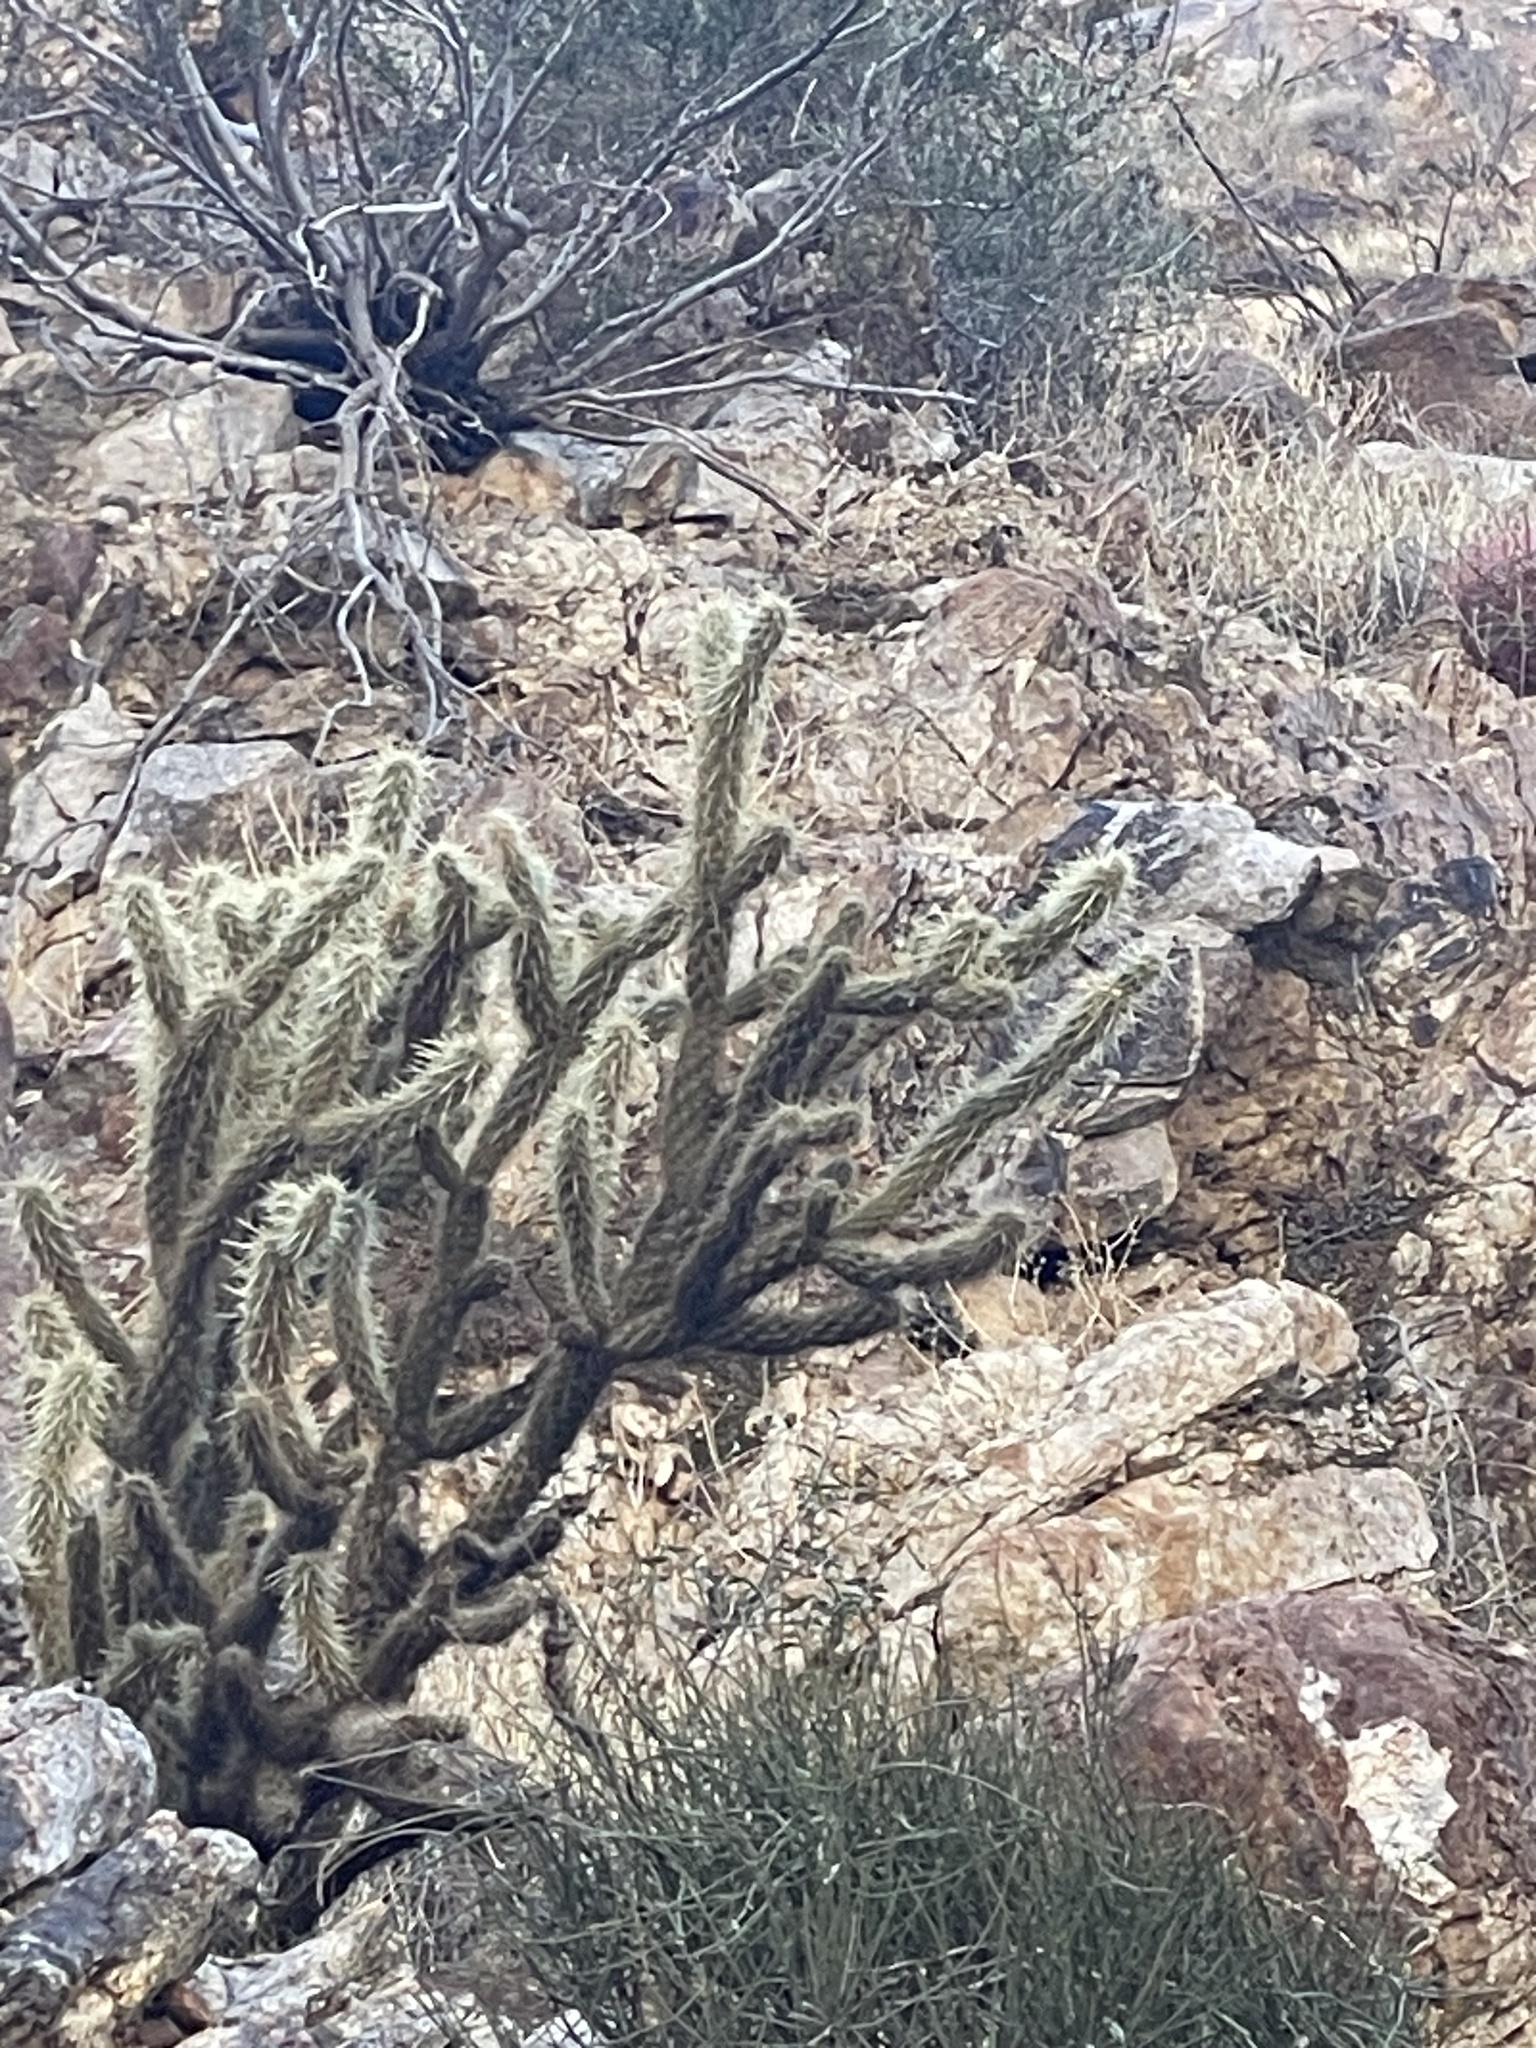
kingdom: Plantae
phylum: Tracheophyta
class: Magnoliopsida
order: Caryophyllales
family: Cactaceae
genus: Cylindropuntia
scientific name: Cylindropuntia ganderi
